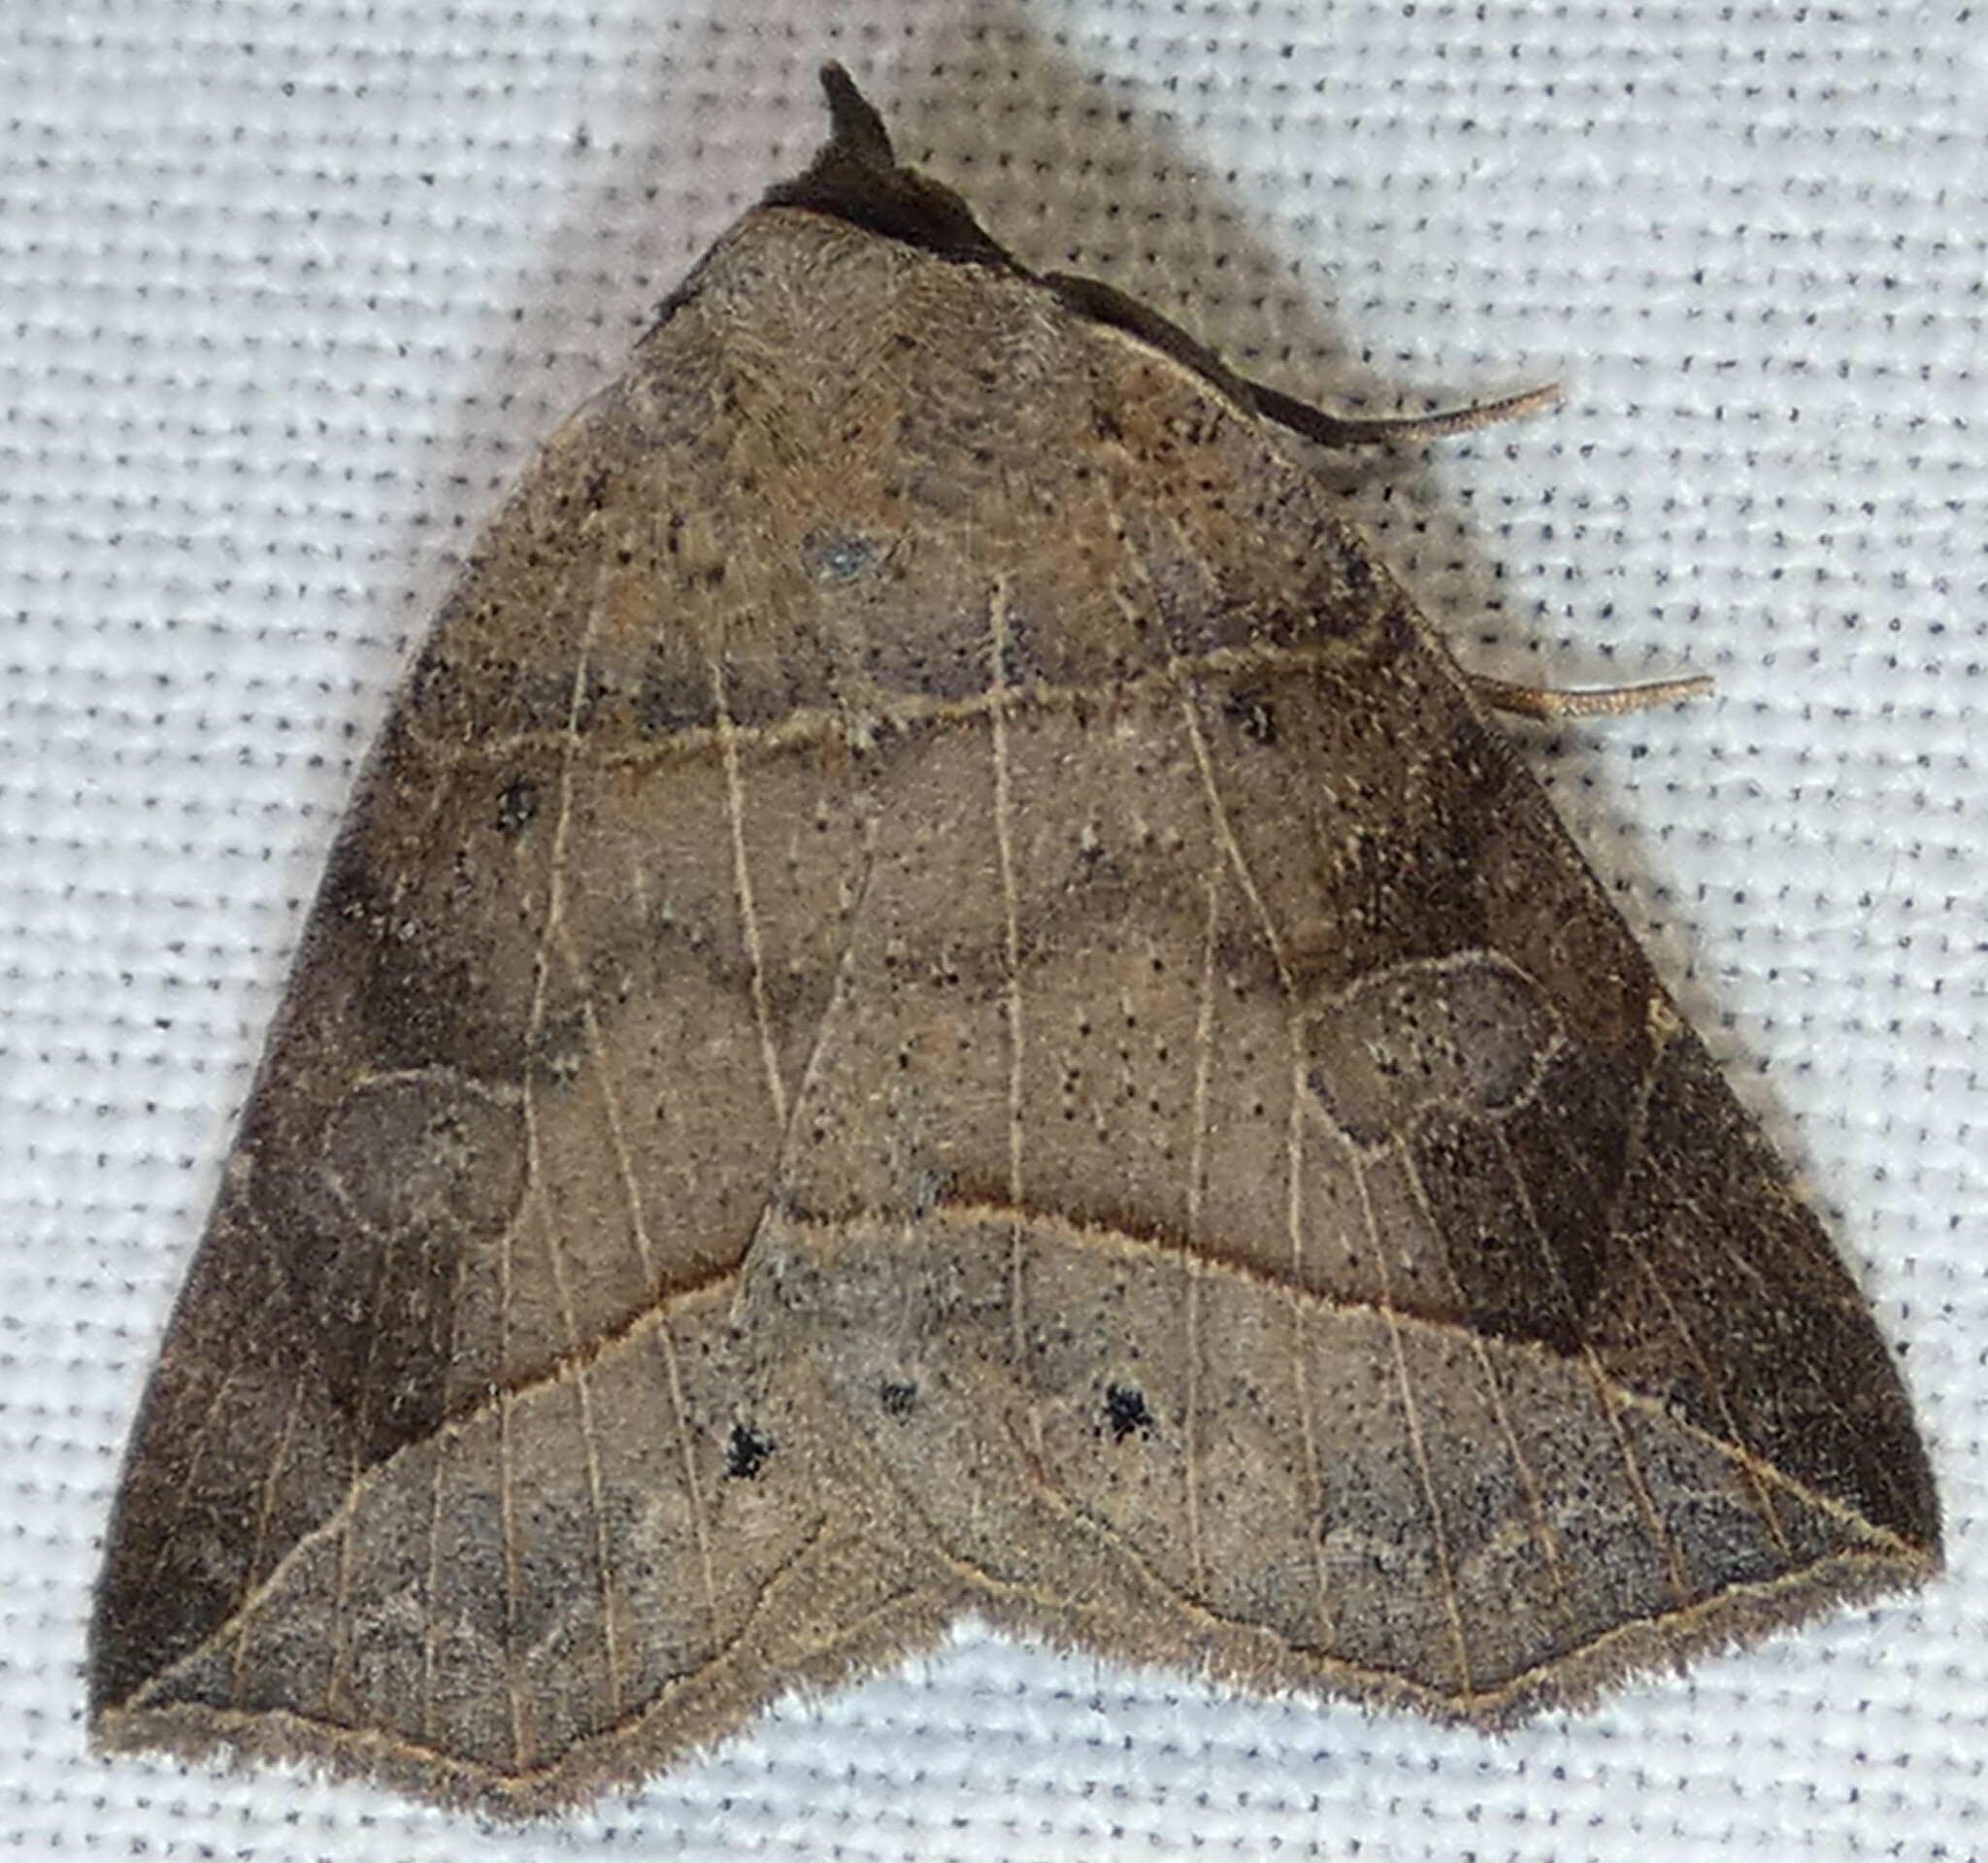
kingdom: Animalia
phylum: Arthropoda
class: Insecta
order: Lepidoptera
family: Erebidae
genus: Isogona
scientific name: Isogona tenuis
